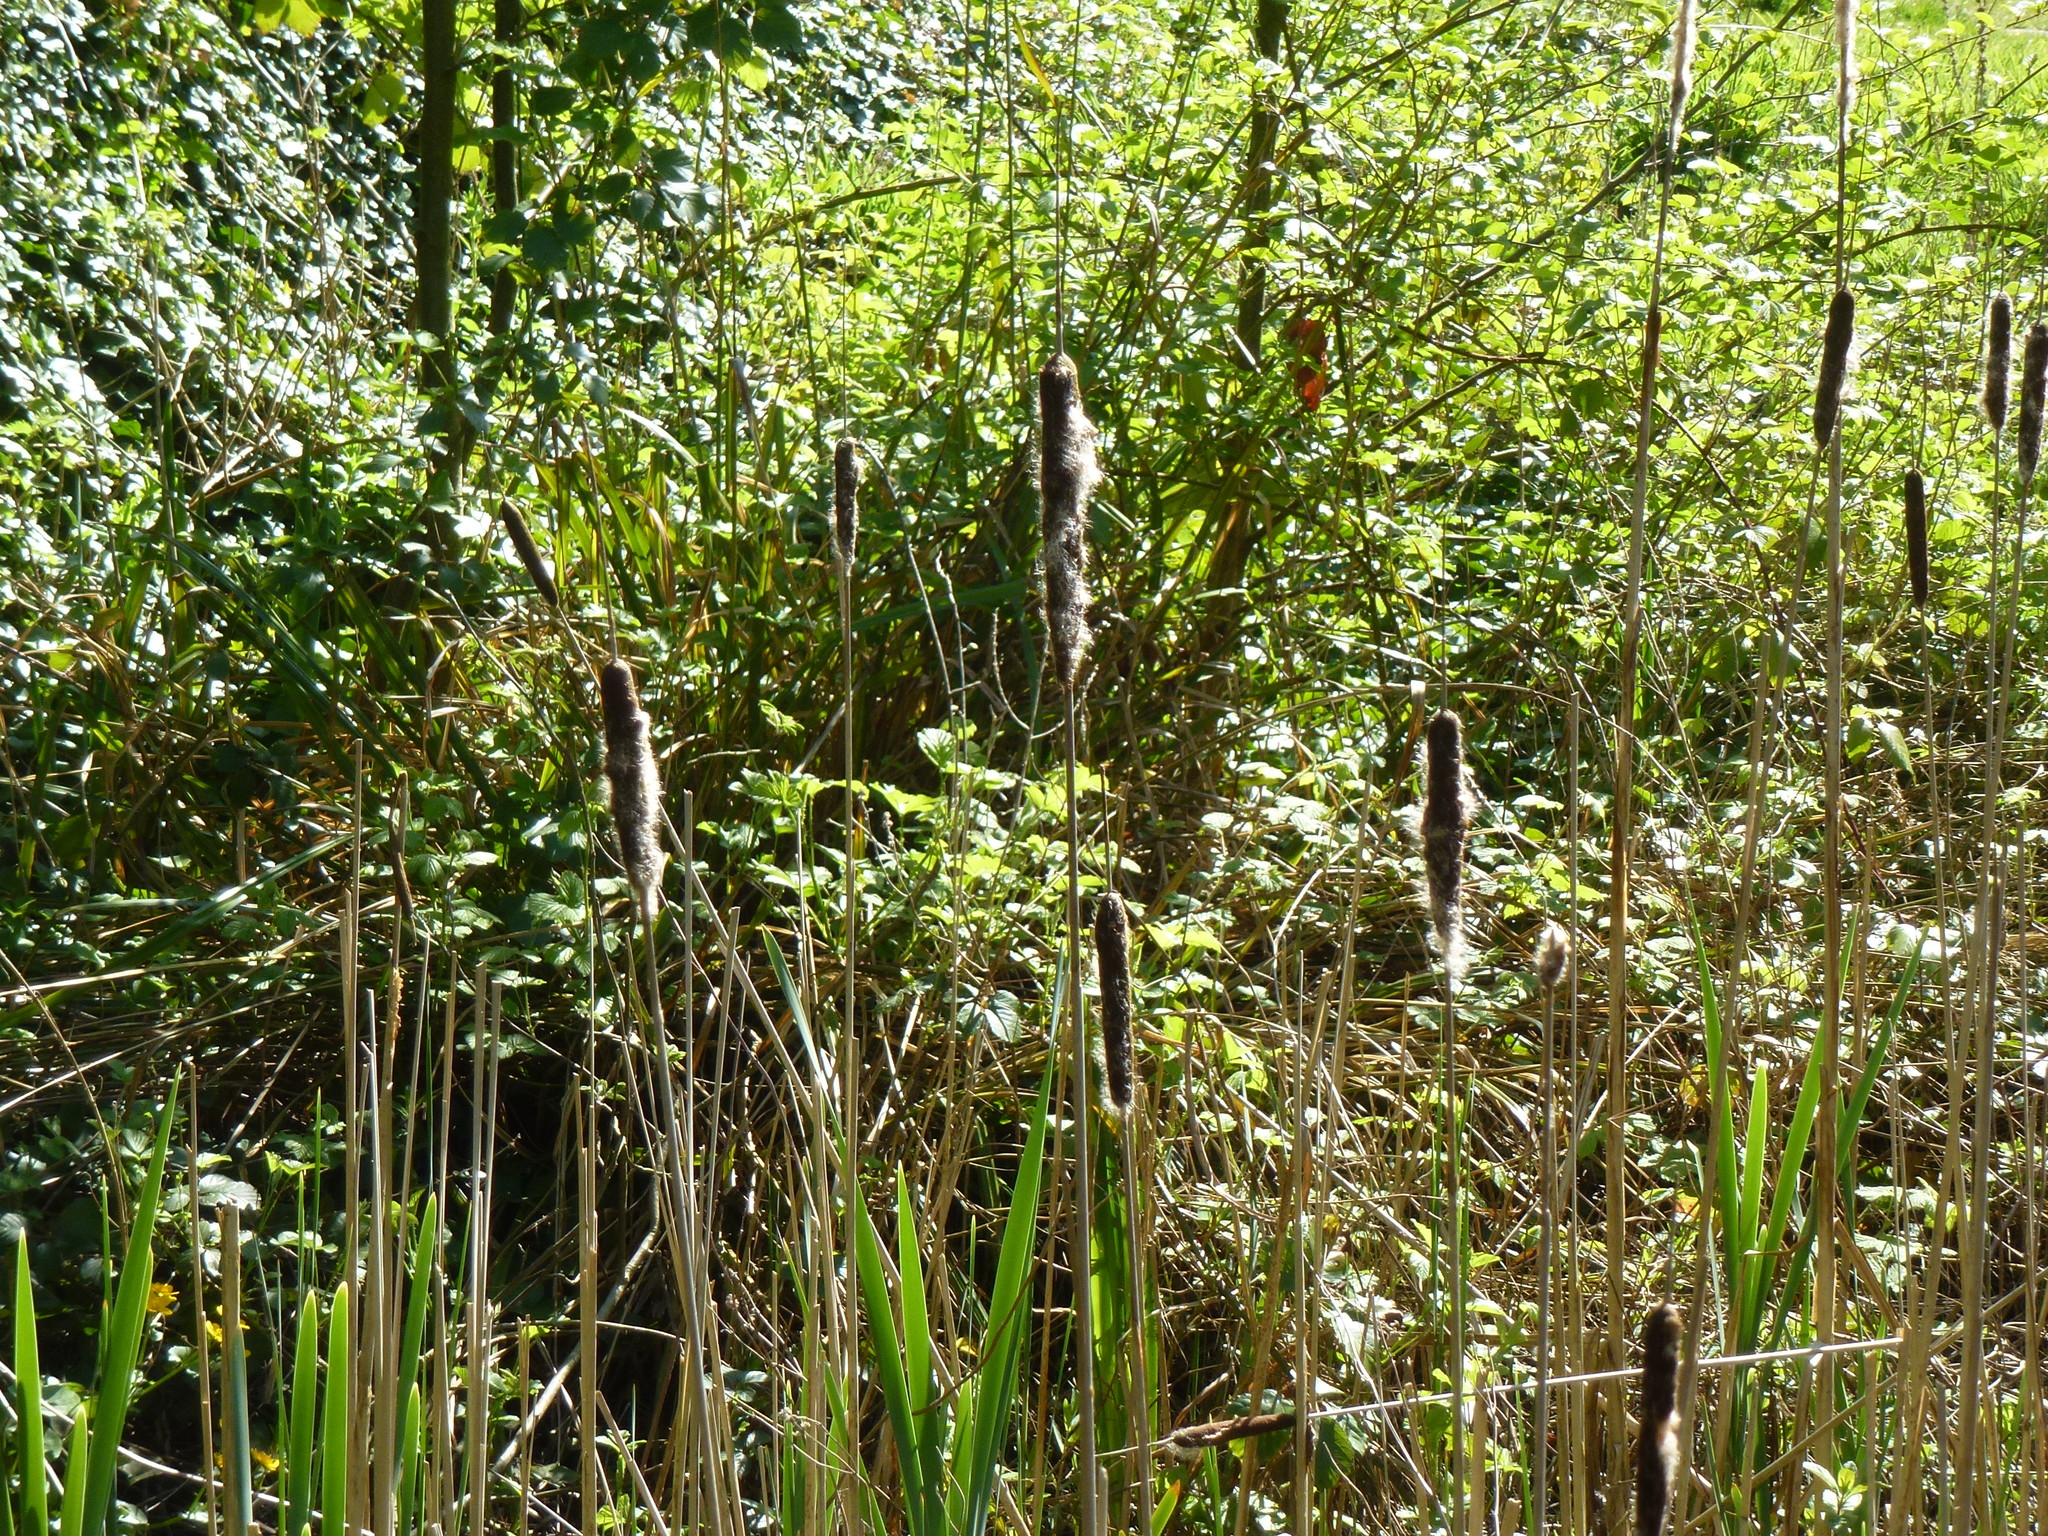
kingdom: Plantae
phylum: Tracheophyta
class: Liliopsida
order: Poales
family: Typhaceae
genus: Typha
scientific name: Typha latifolia
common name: Broadleaf cattail
